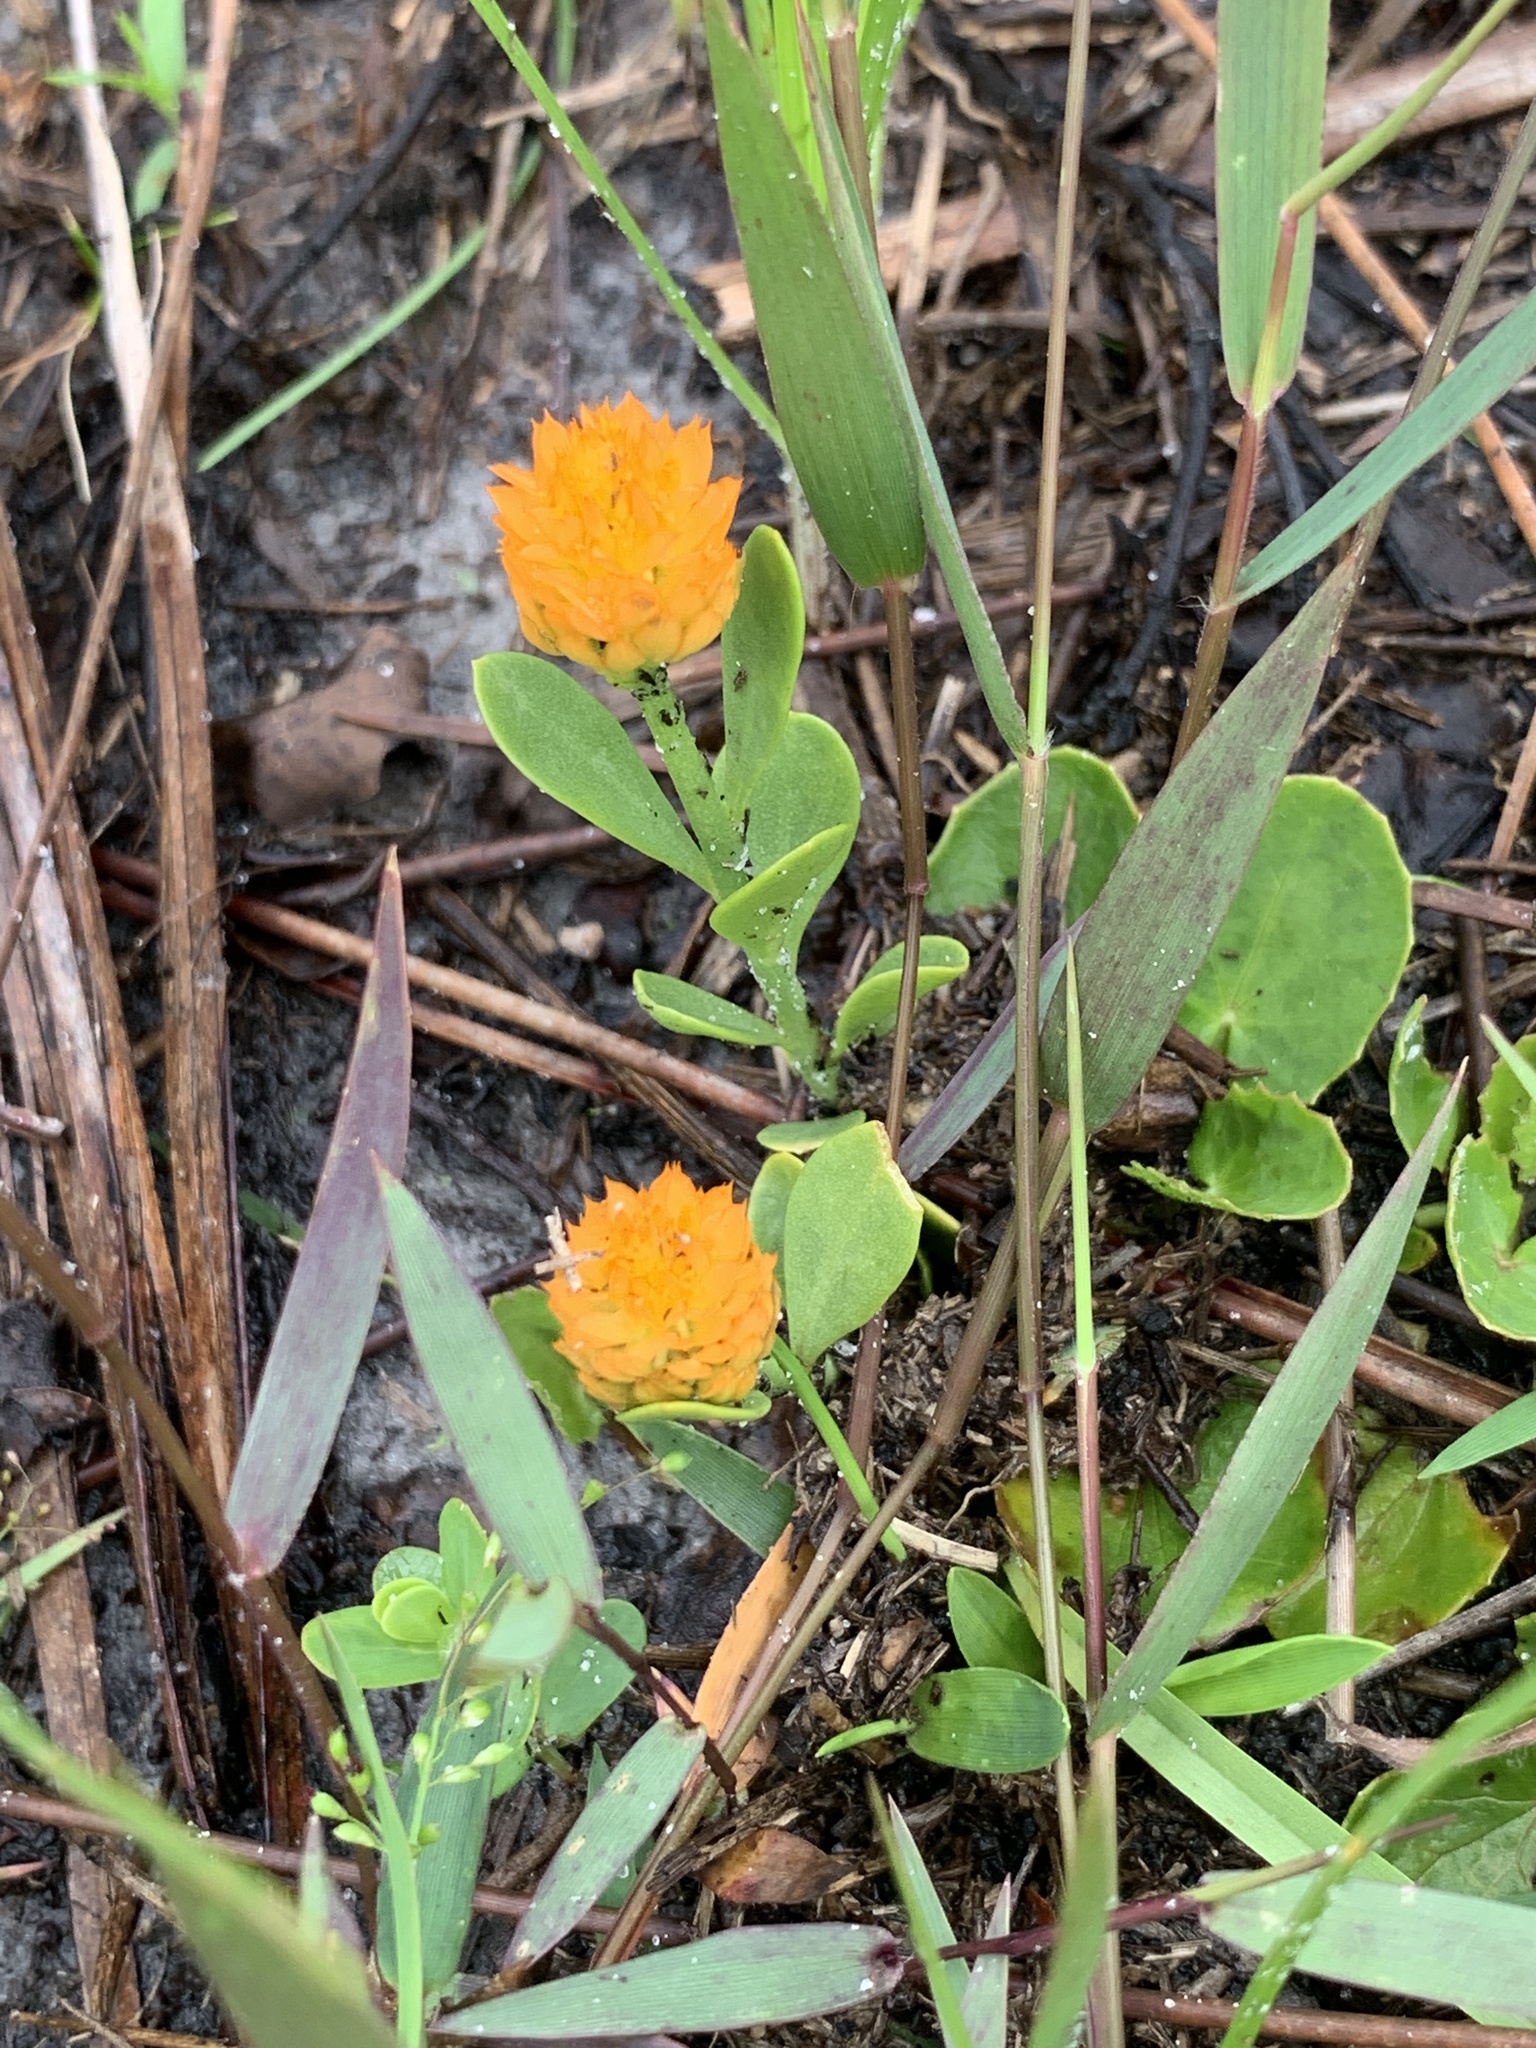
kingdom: Plantae
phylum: Tracheophyta
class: Magnoliopsida
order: Fabales
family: Polygalaceae
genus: Polygala
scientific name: Polygala lutea
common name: Orange milkwort
